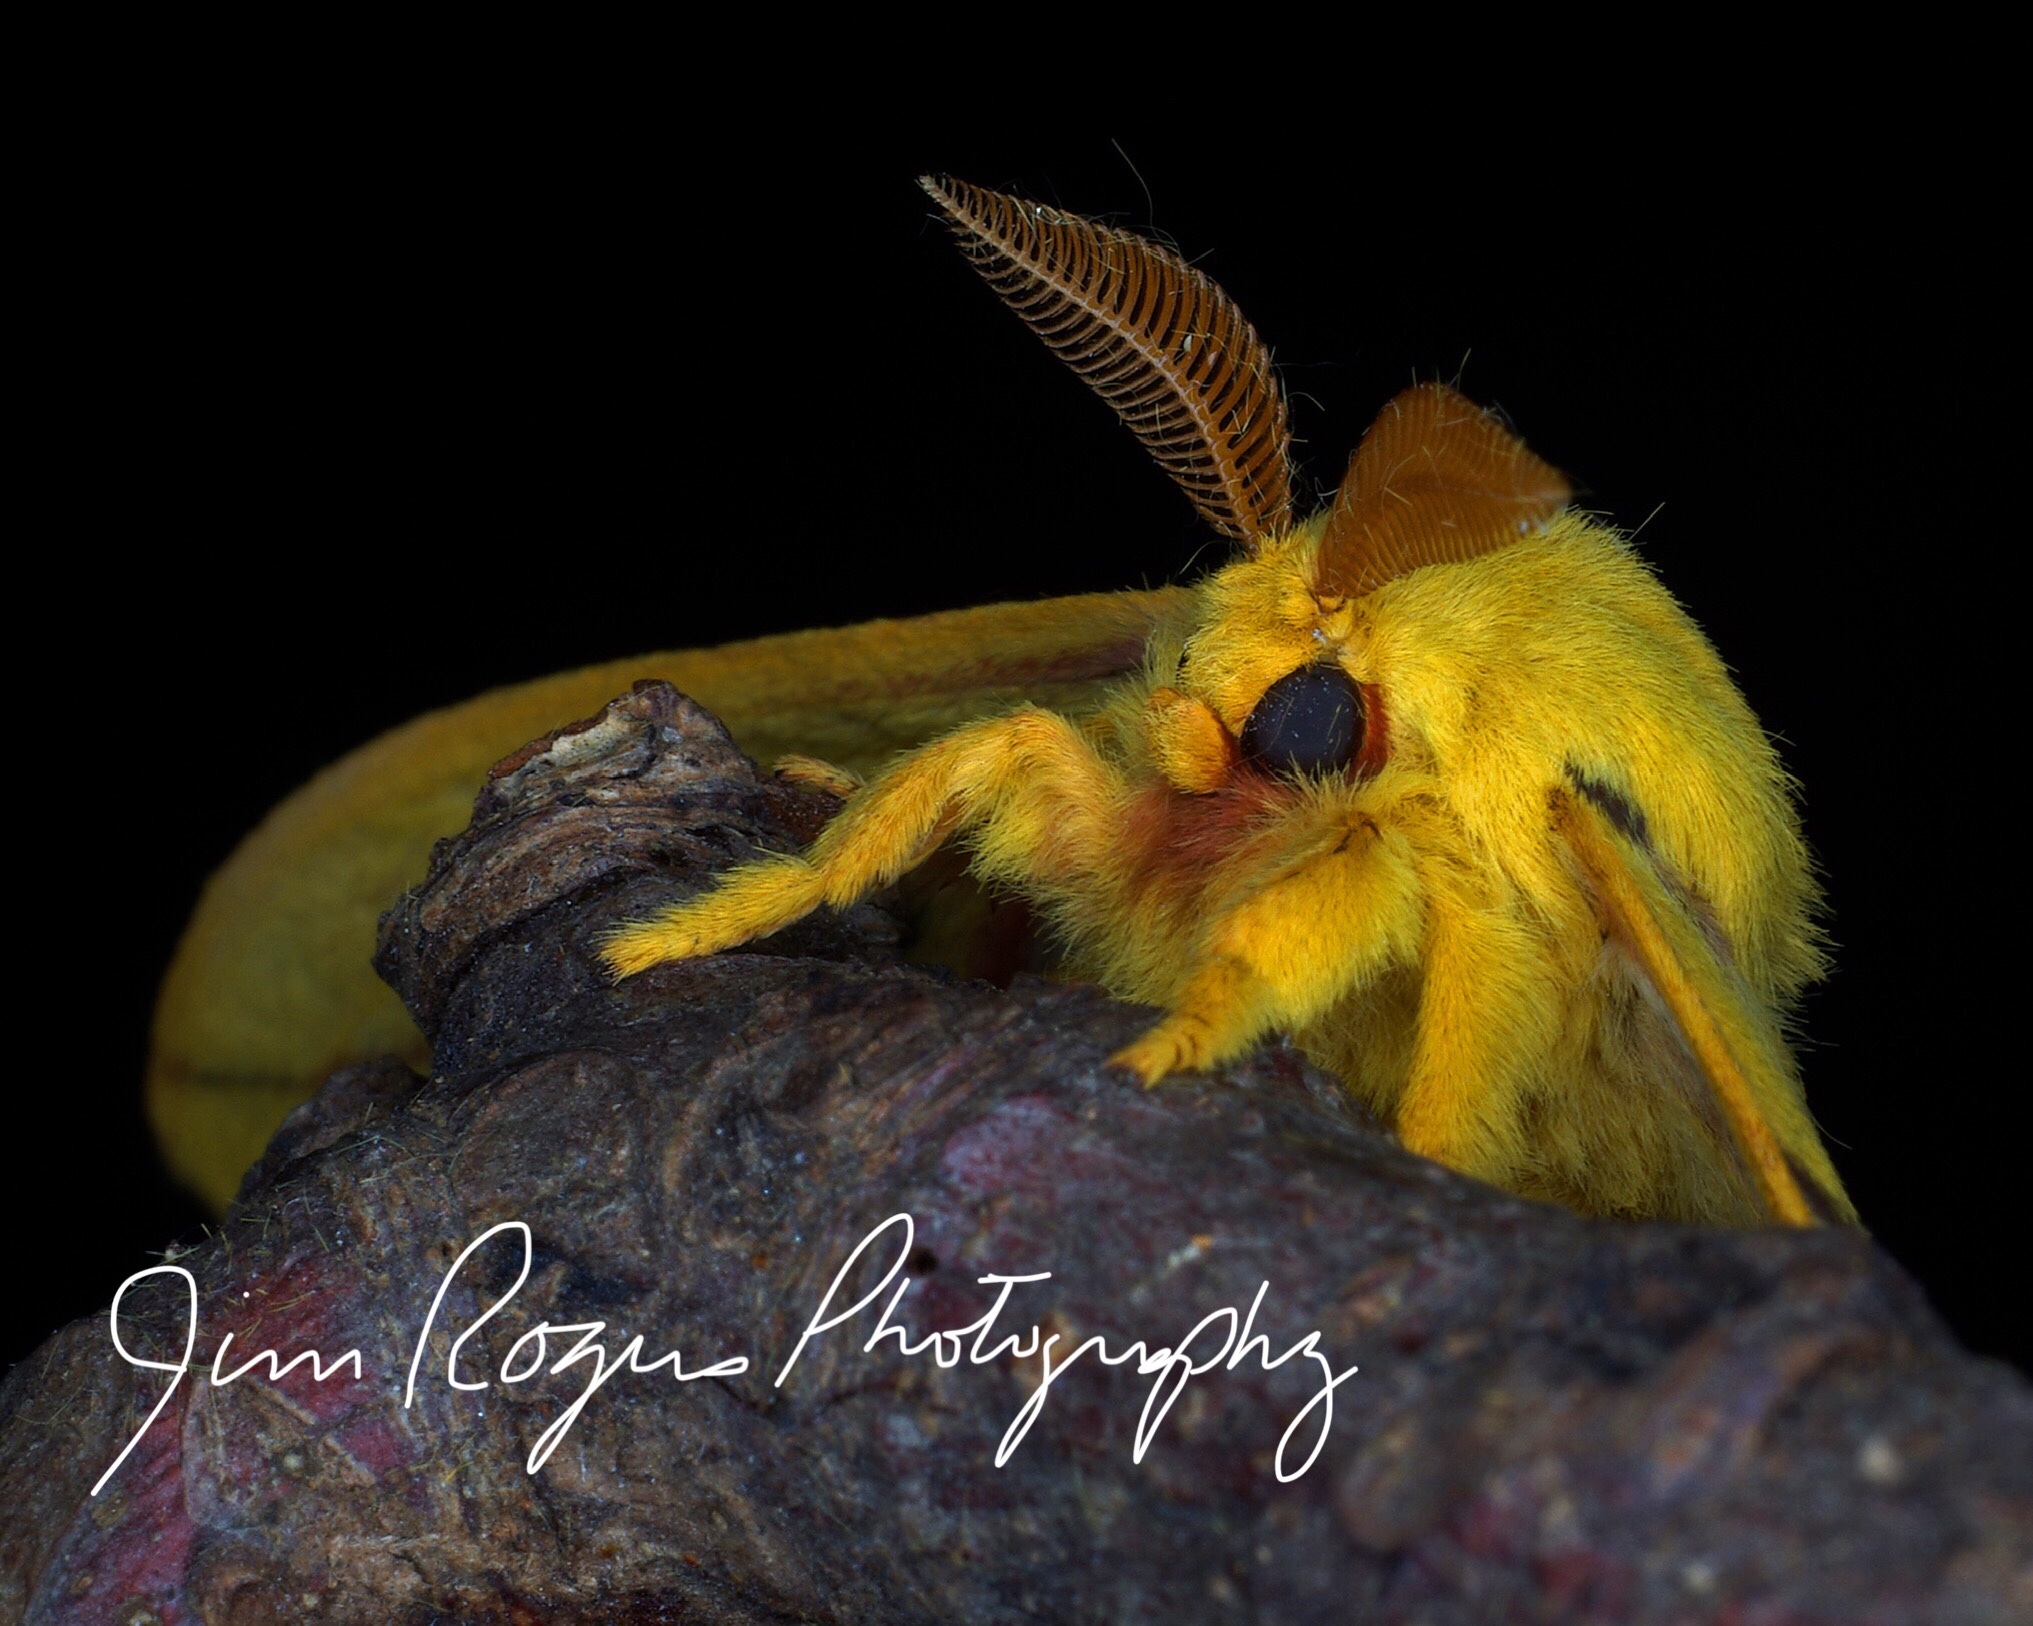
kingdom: Animalia
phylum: Arthropoda
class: Insecta
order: Lepidoptera
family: Saturniidae
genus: Automeris
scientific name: Automeris io
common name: Io moth
